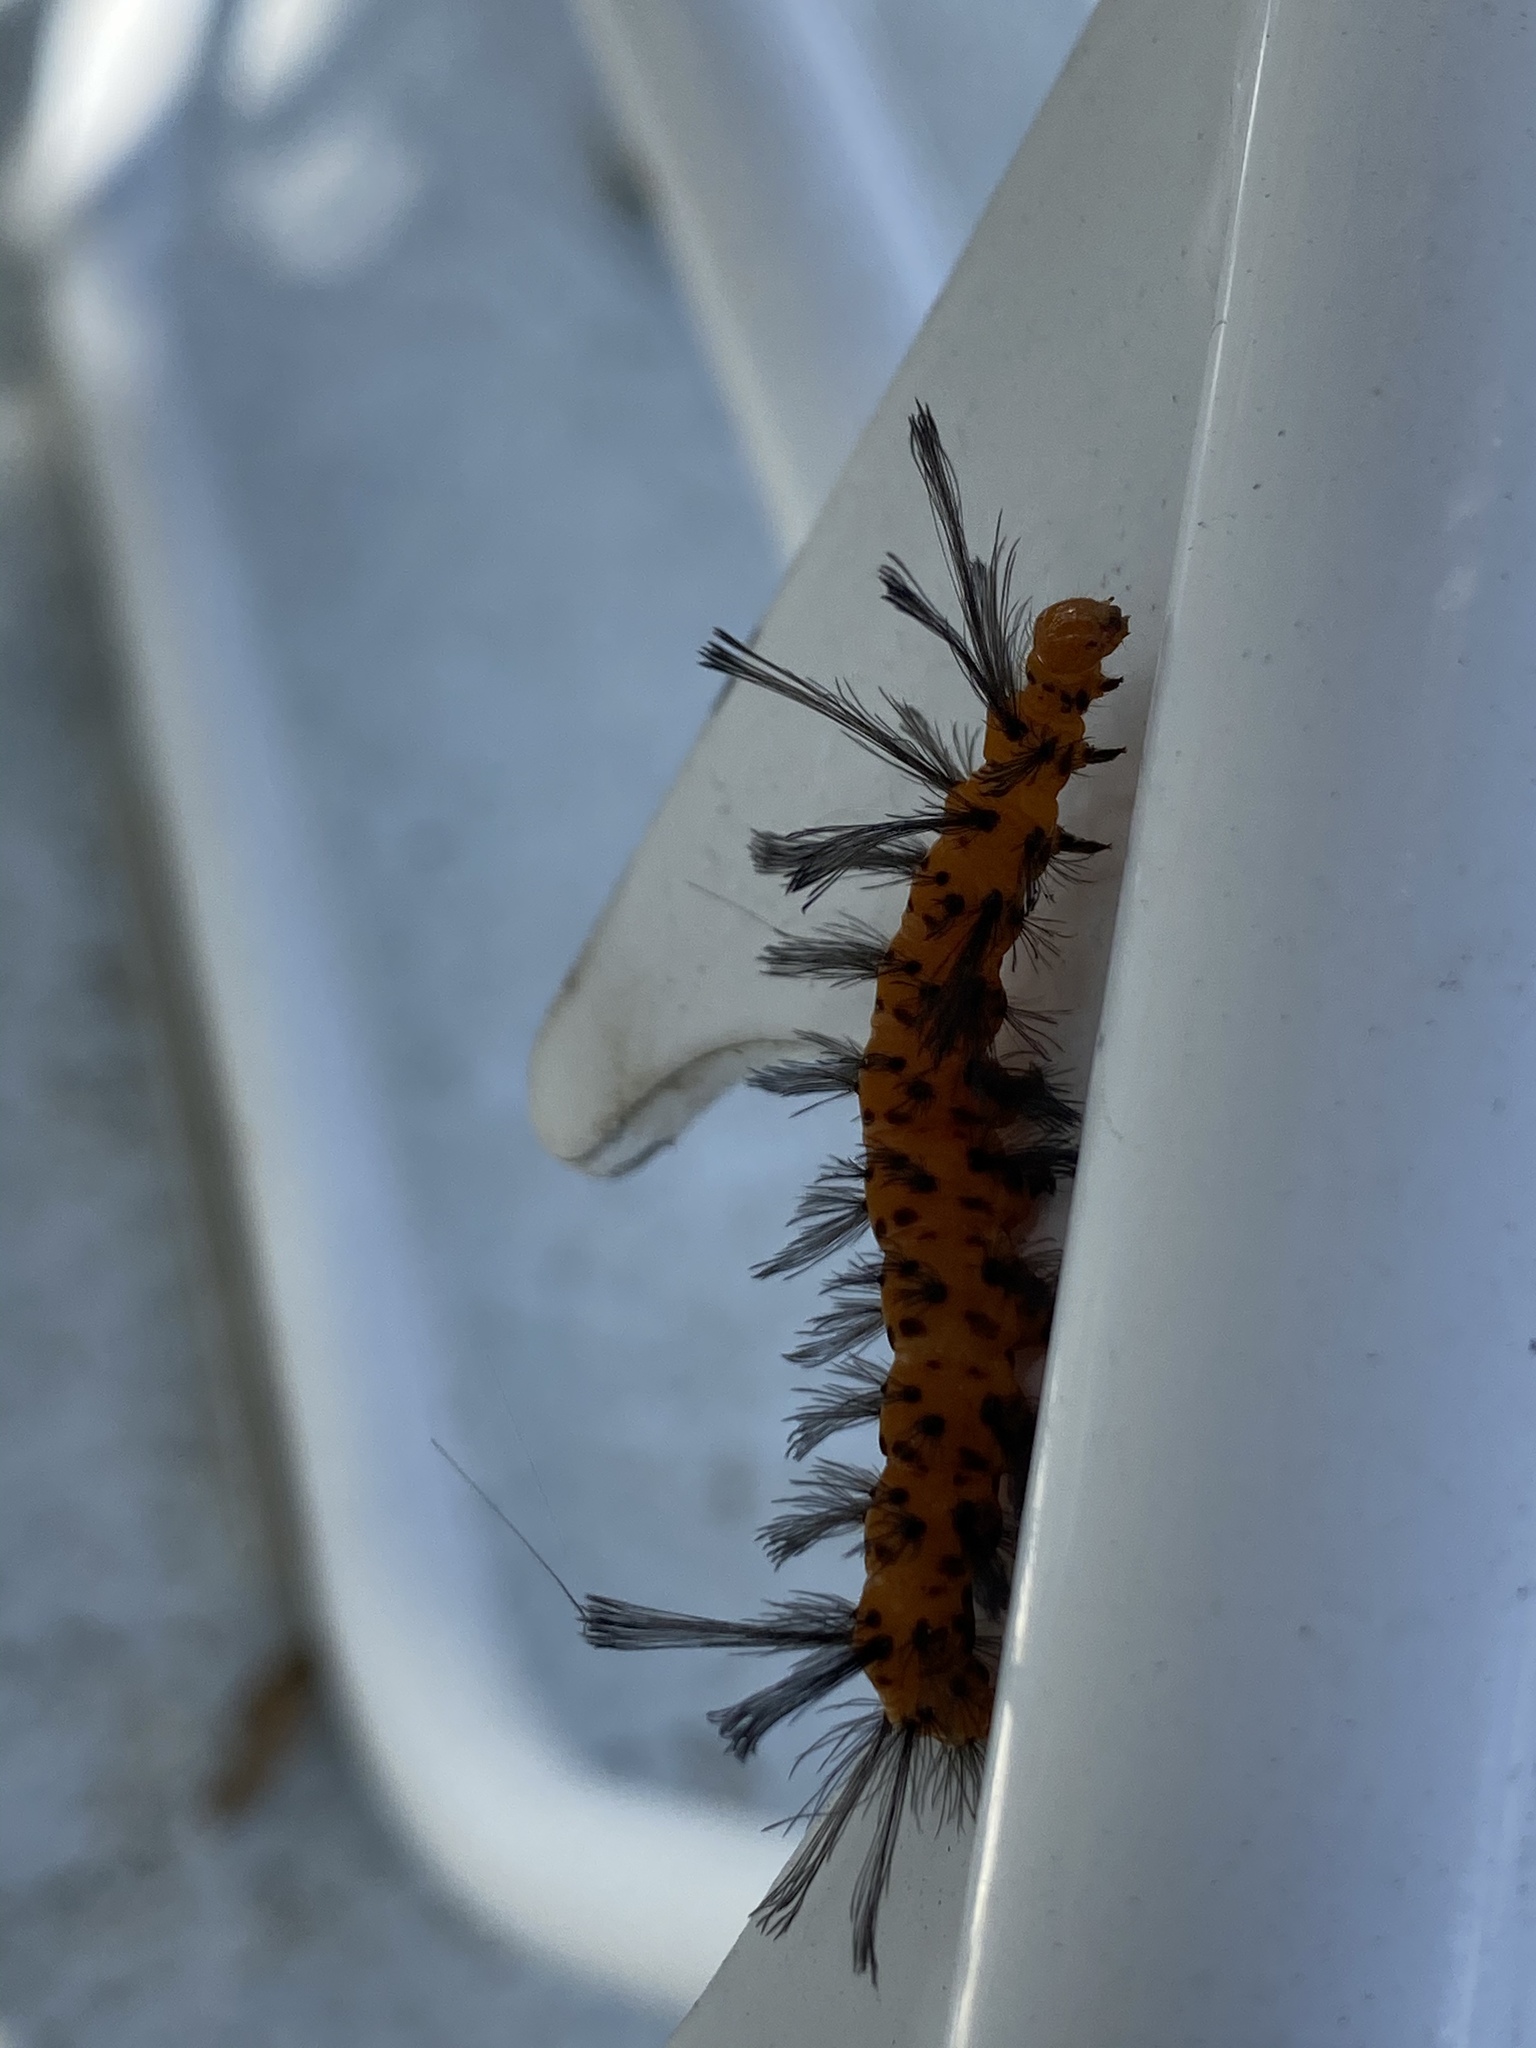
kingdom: Animalia
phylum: Arthropoda
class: Insecta
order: Lepidoptera
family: Erebidae
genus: Syntomeida
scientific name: Syntomeida epilais
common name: Polka-dot wasp moth
